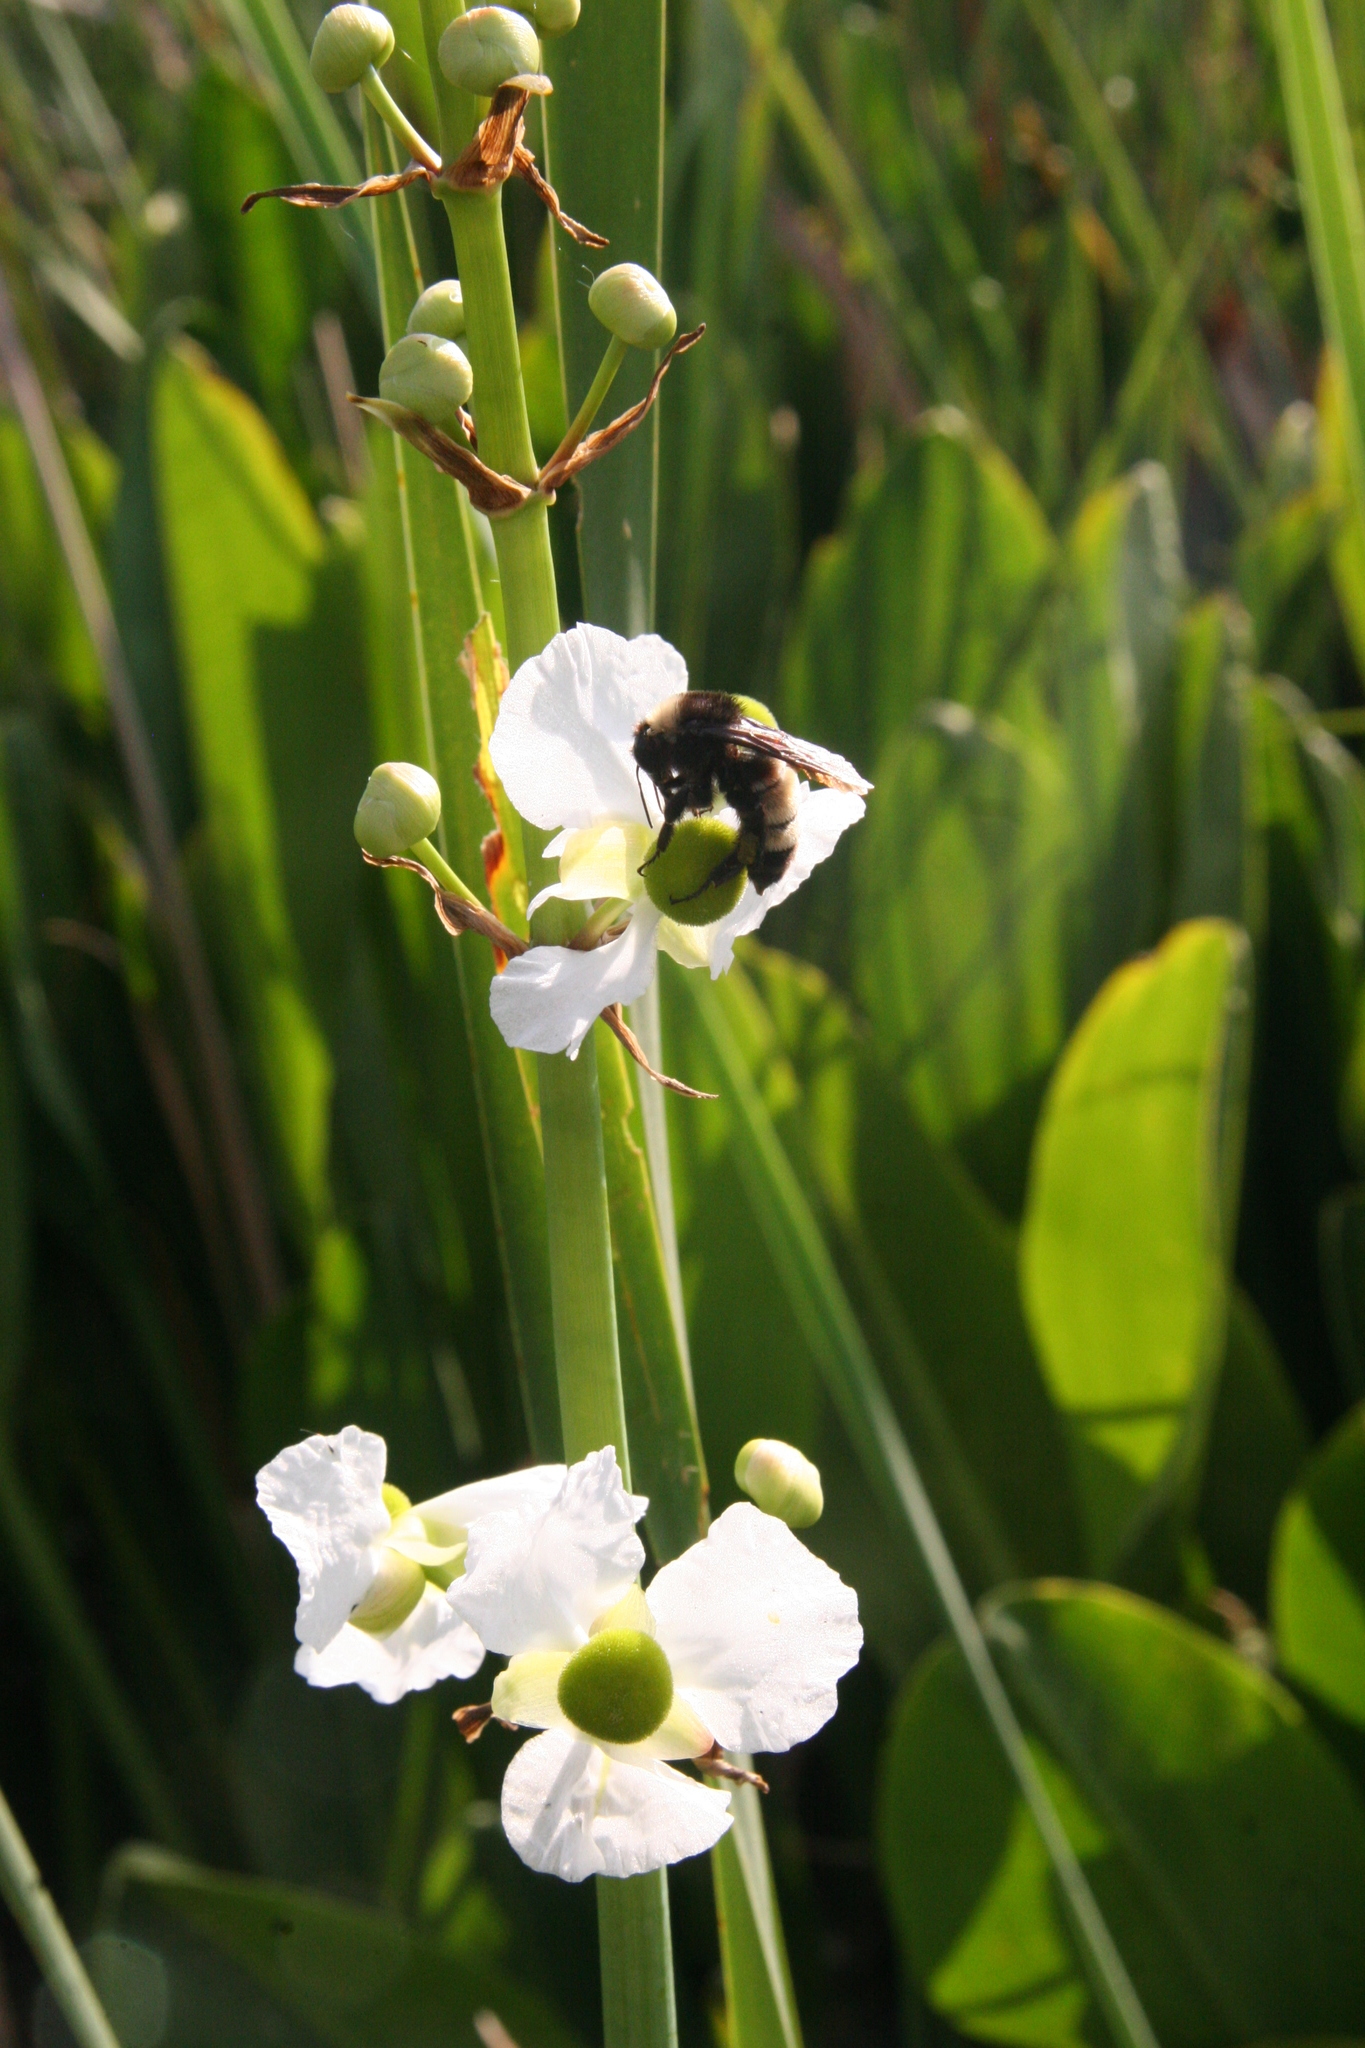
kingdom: Animalia
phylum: Arthropoda
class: Insecta
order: Hymenoptera
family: Apidae
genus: Bombus
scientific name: Bombus pensylvanicus
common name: Bumble bee
